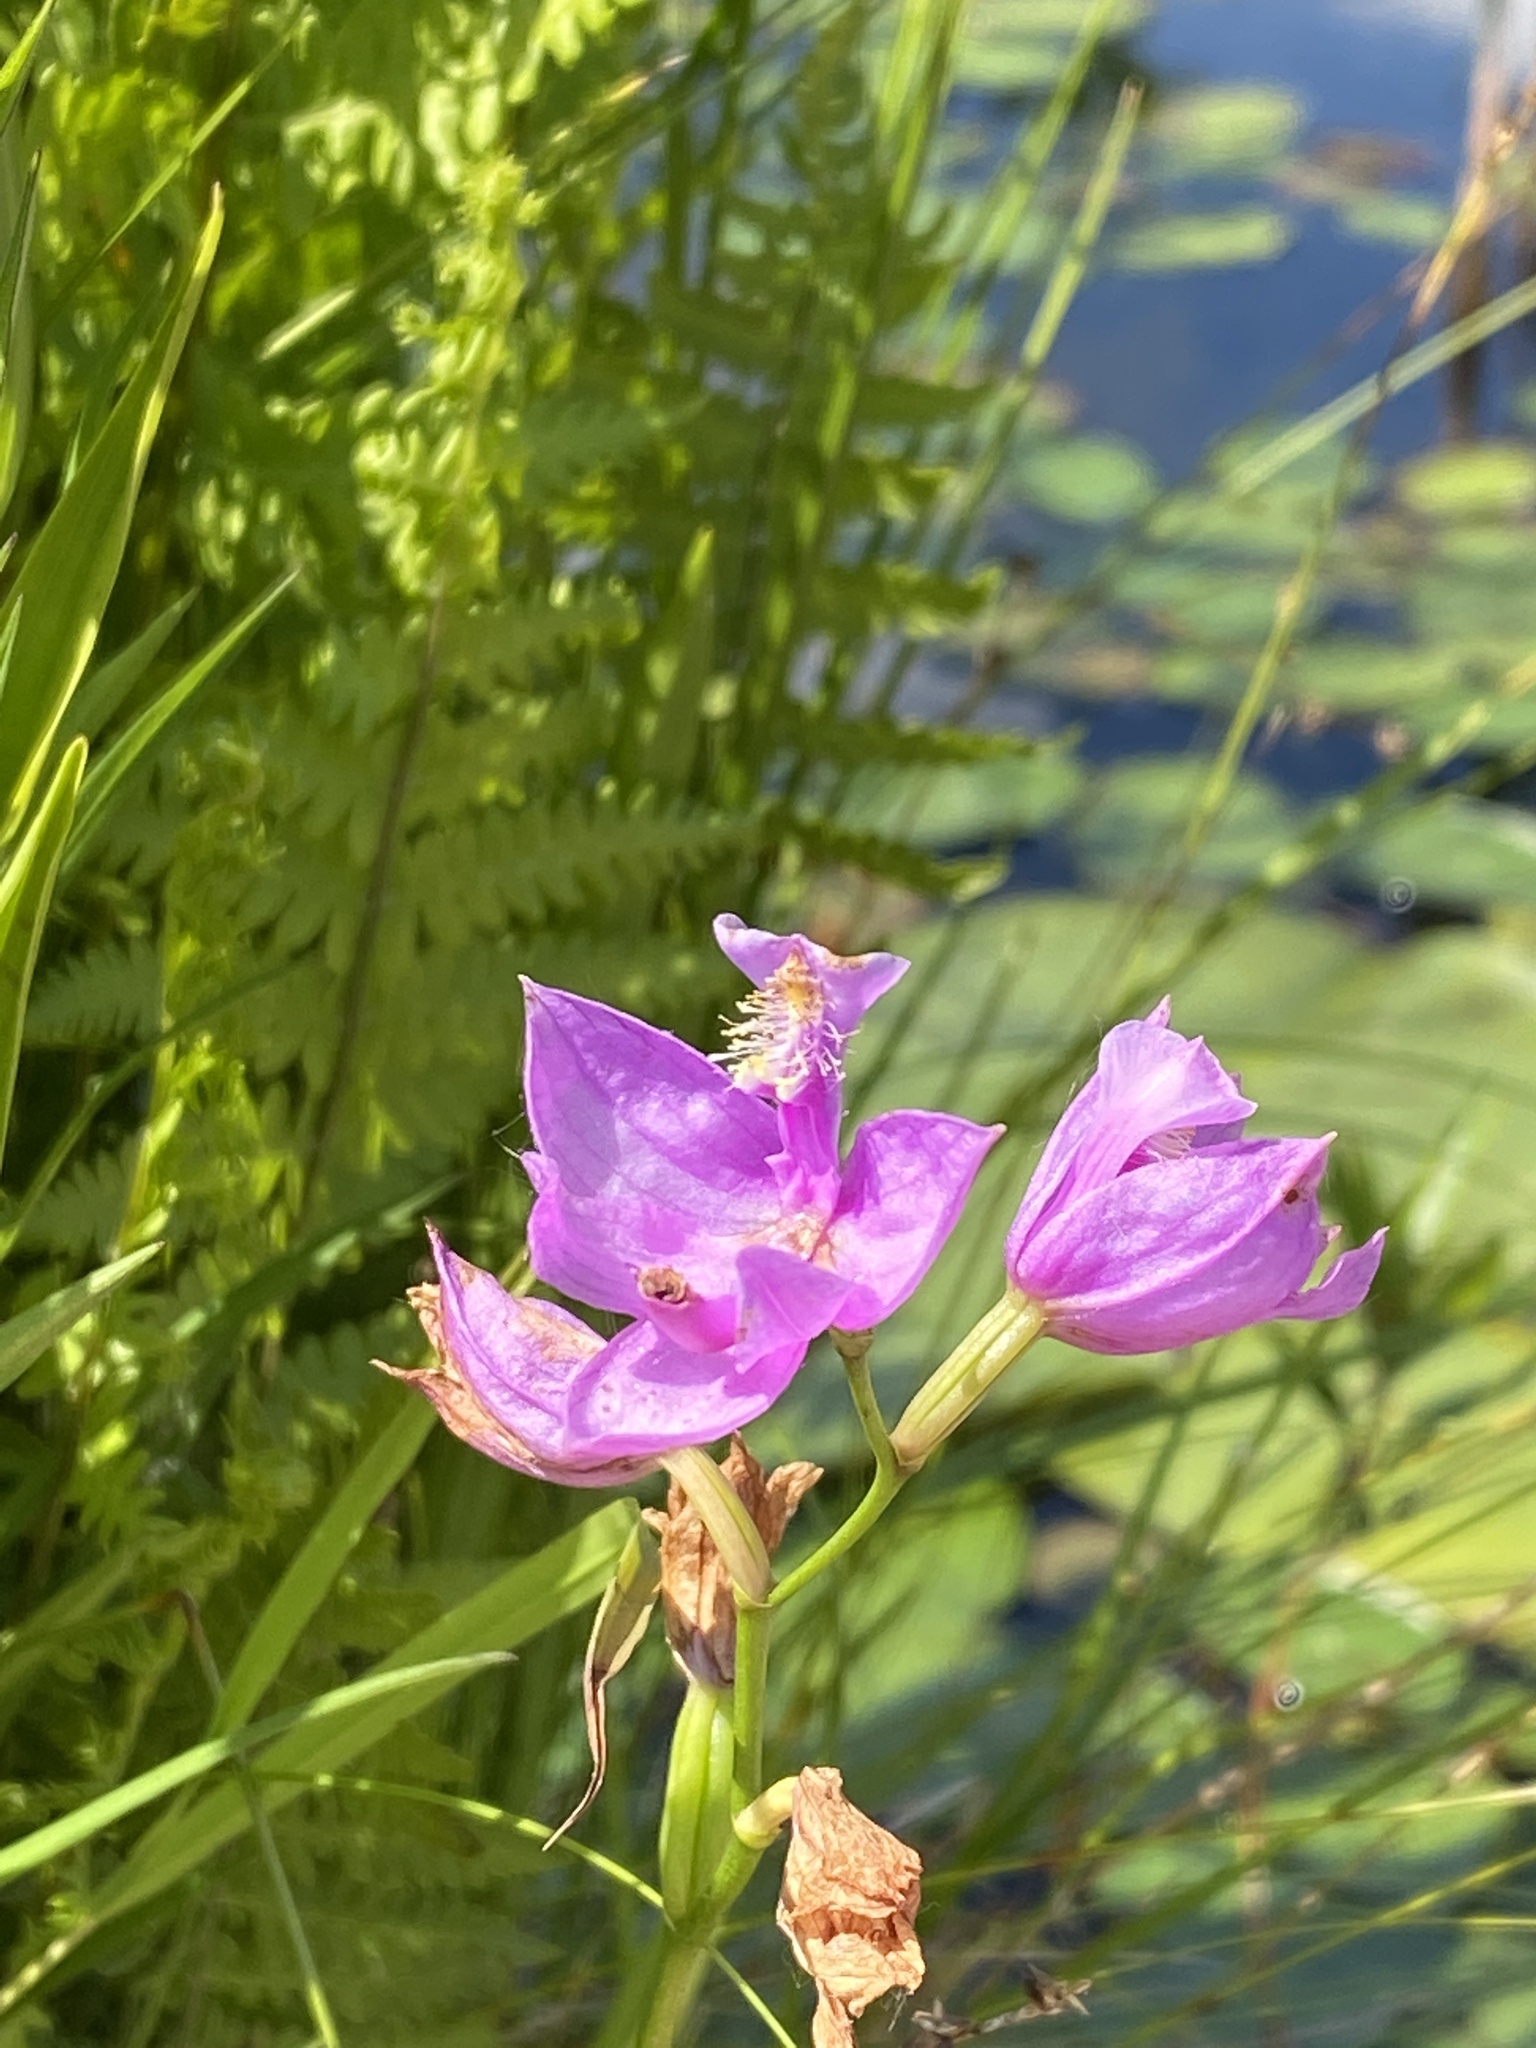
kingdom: Plantae
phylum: Tracheophyta
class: Liliopsida
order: Asparagales
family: Orchidaceae
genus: Calopogon
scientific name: Calopogon tuberosus
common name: Grass-pink
